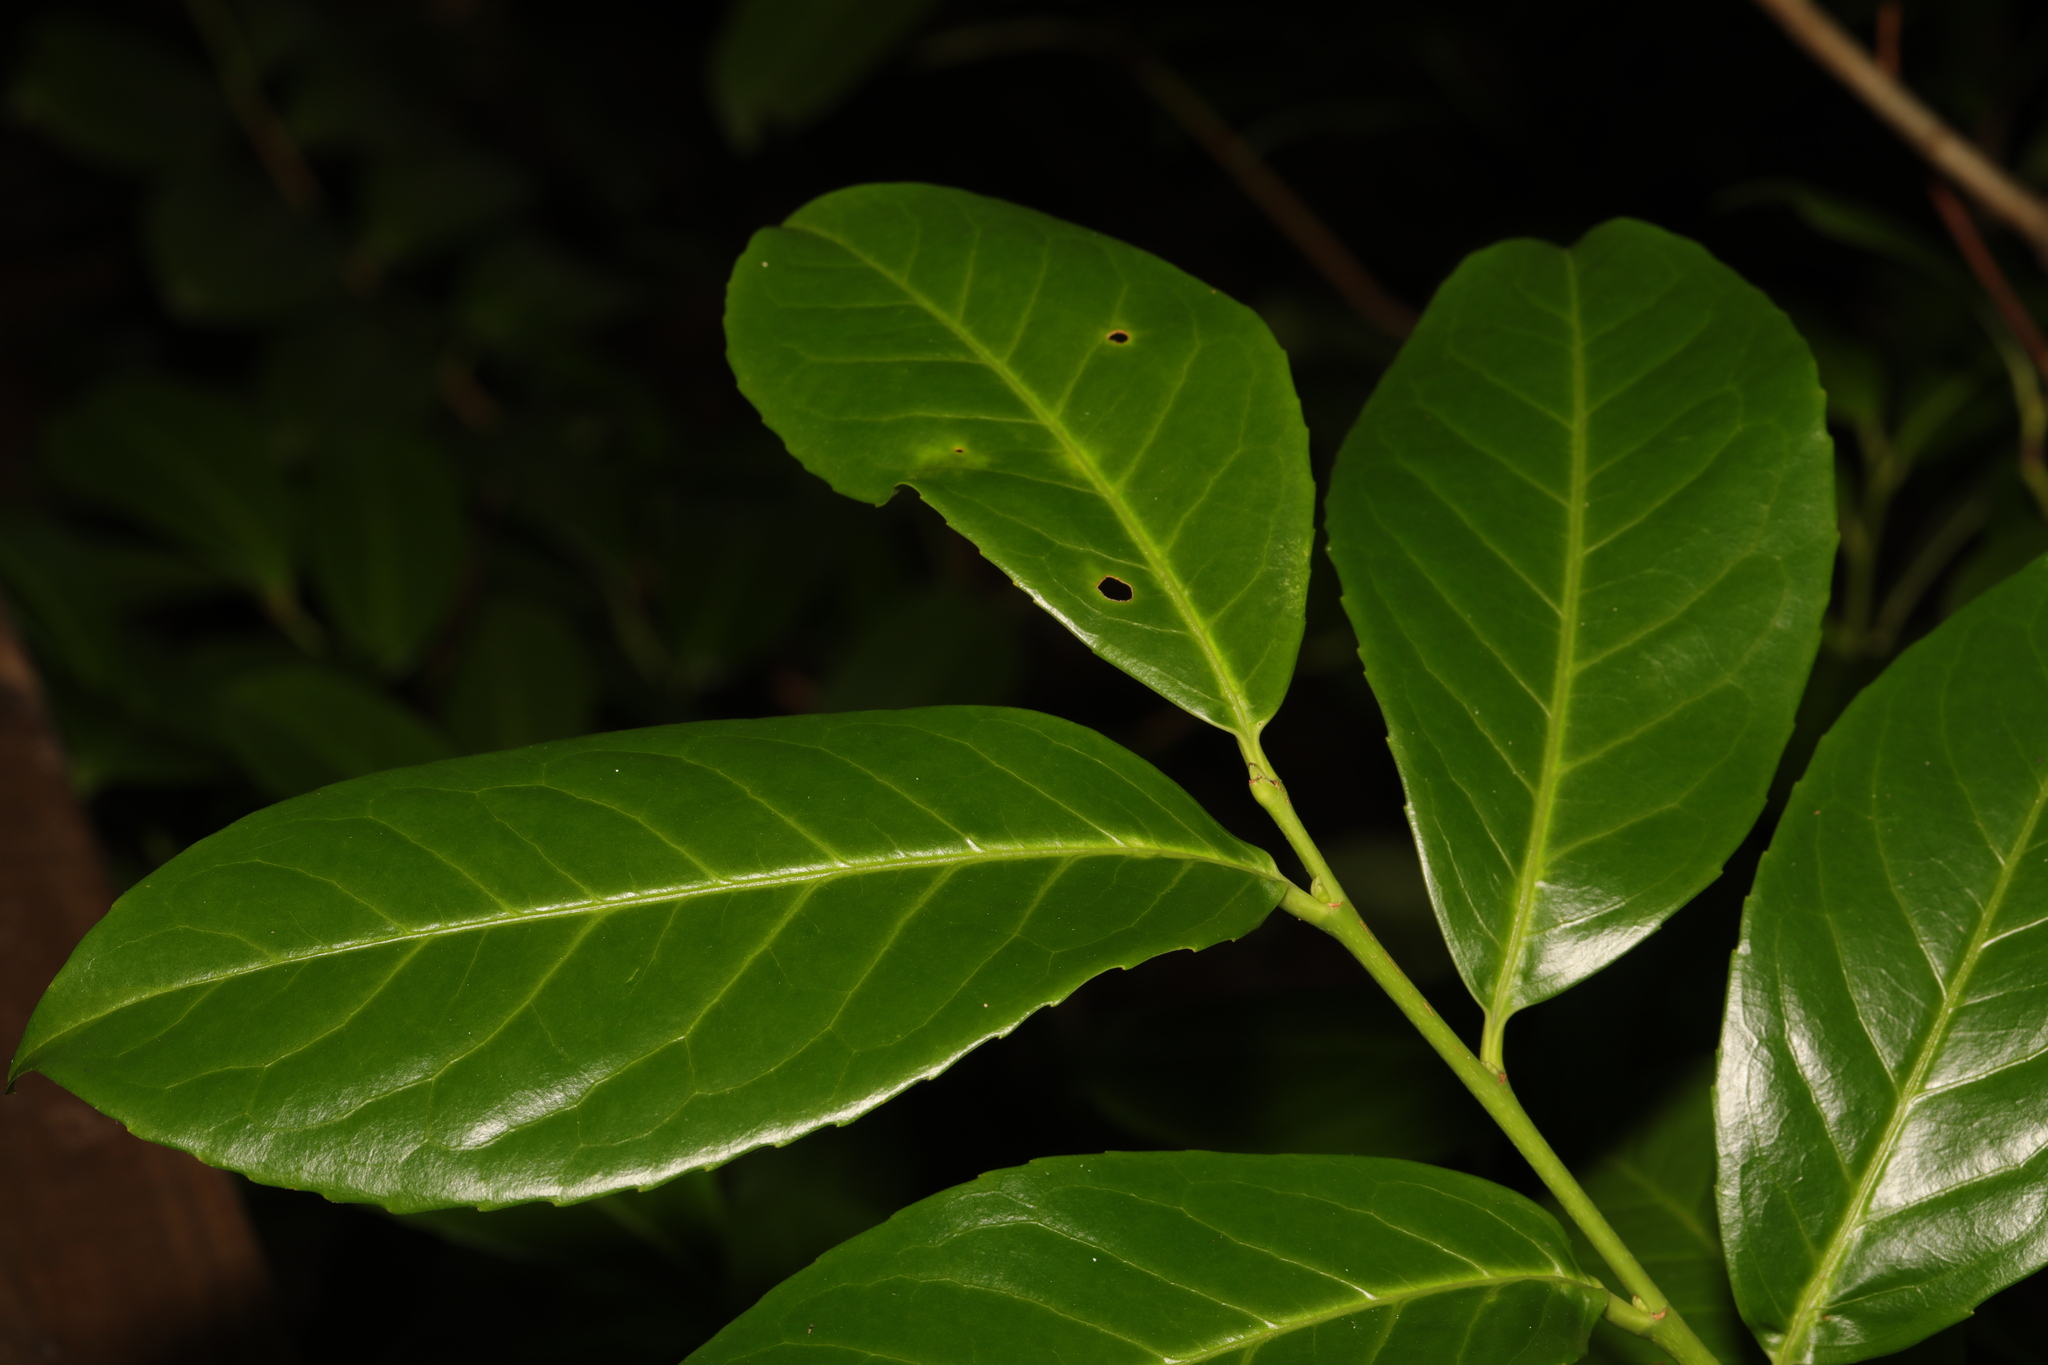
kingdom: Plantae
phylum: Tracheophyta
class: Magnoliopsida
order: Rosales
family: Rosaceae
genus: Prunus
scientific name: Prunus laurocerasus
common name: Cherry laurel
